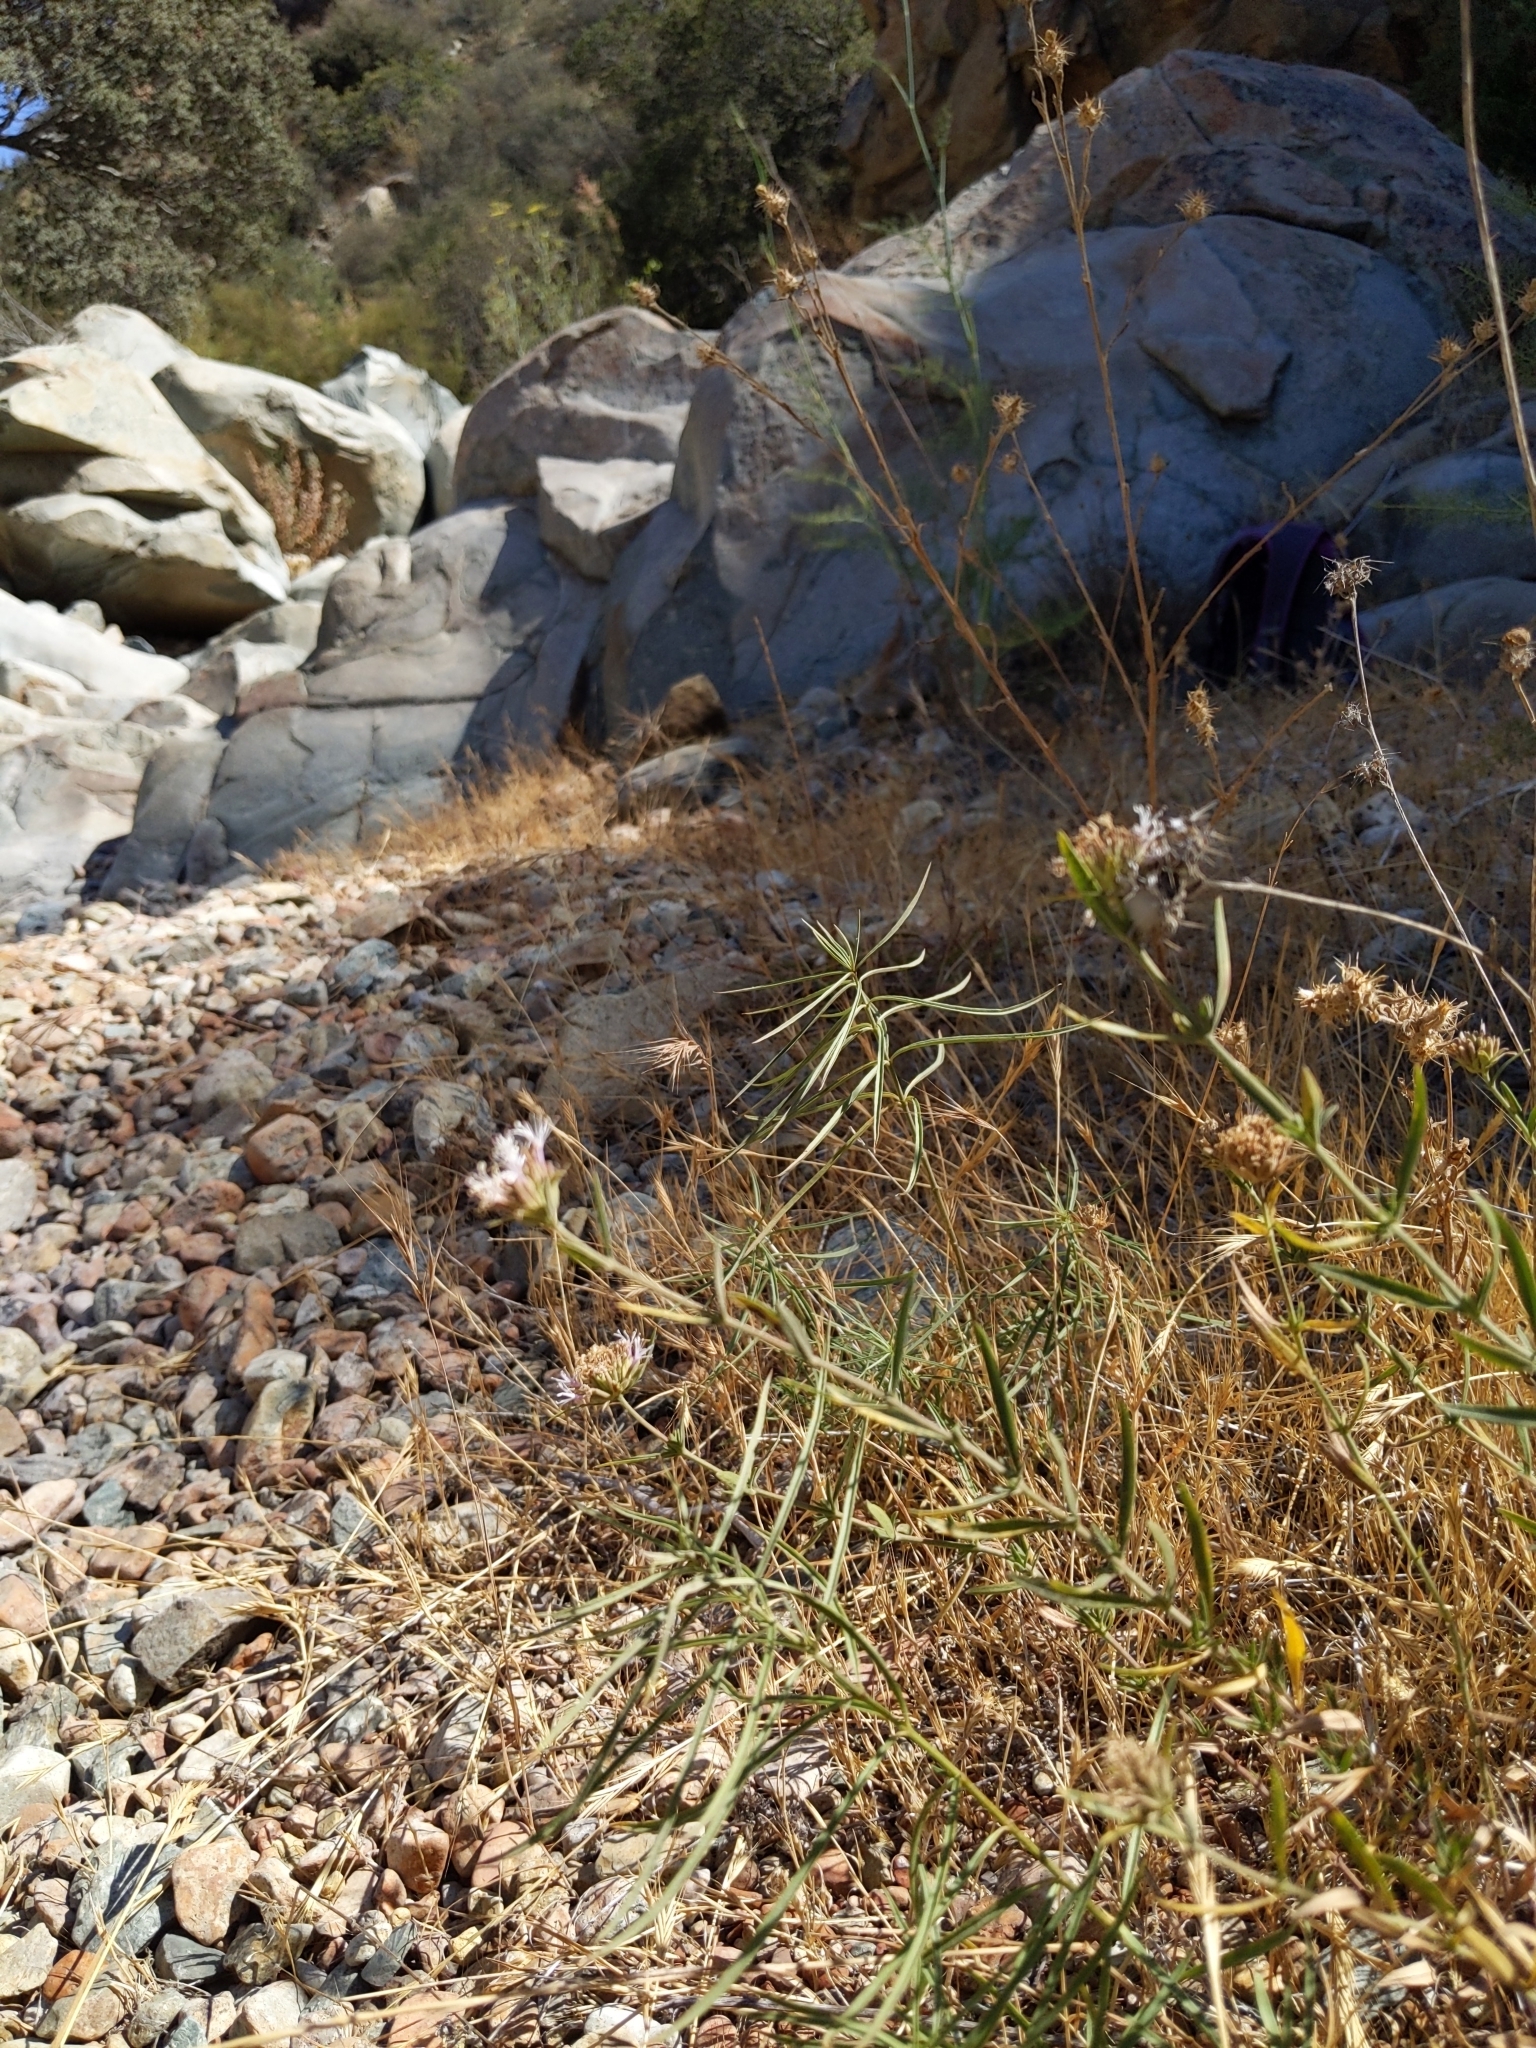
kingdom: Plantae
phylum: Tracheophyta
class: Magnoliopsida
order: Lamiales
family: Lamiaceae
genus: Monardella
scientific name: Monardella stoneana
